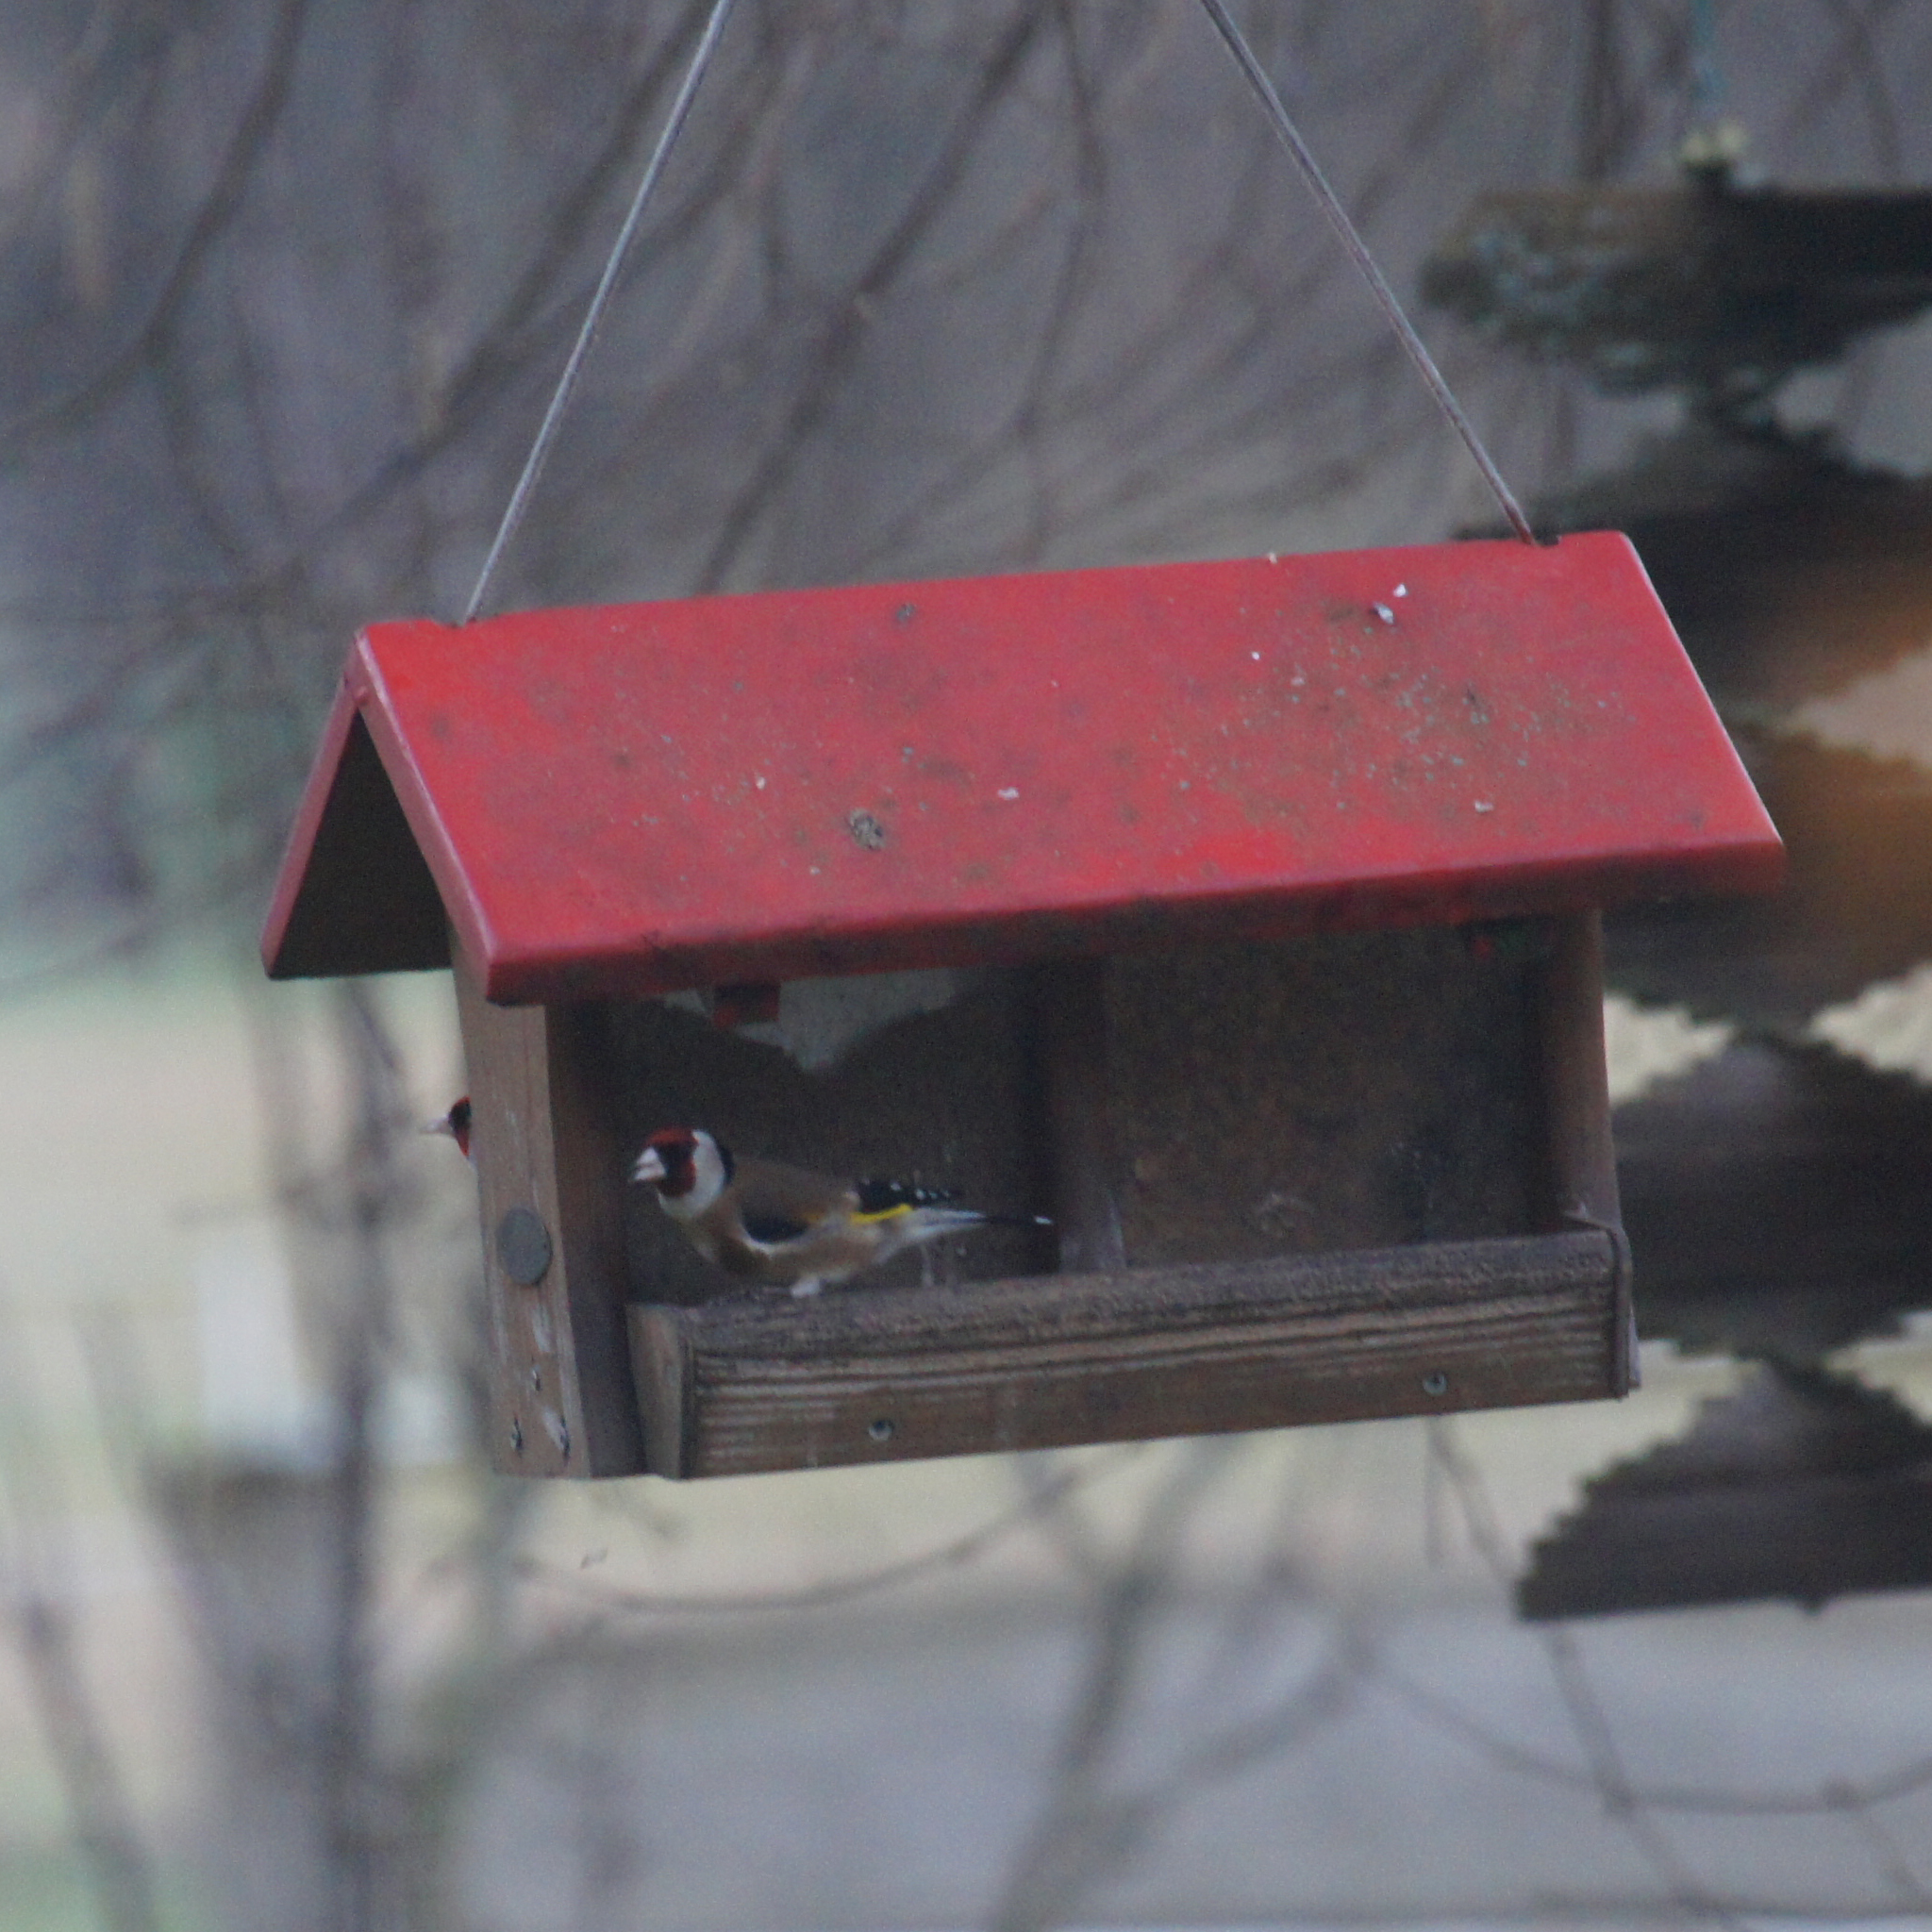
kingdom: Animalia
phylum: Chordata
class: Aves
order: Passeriformes
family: Fringillidae
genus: Carduelis
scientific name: Carduelis carduelis
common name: European goldfinch
